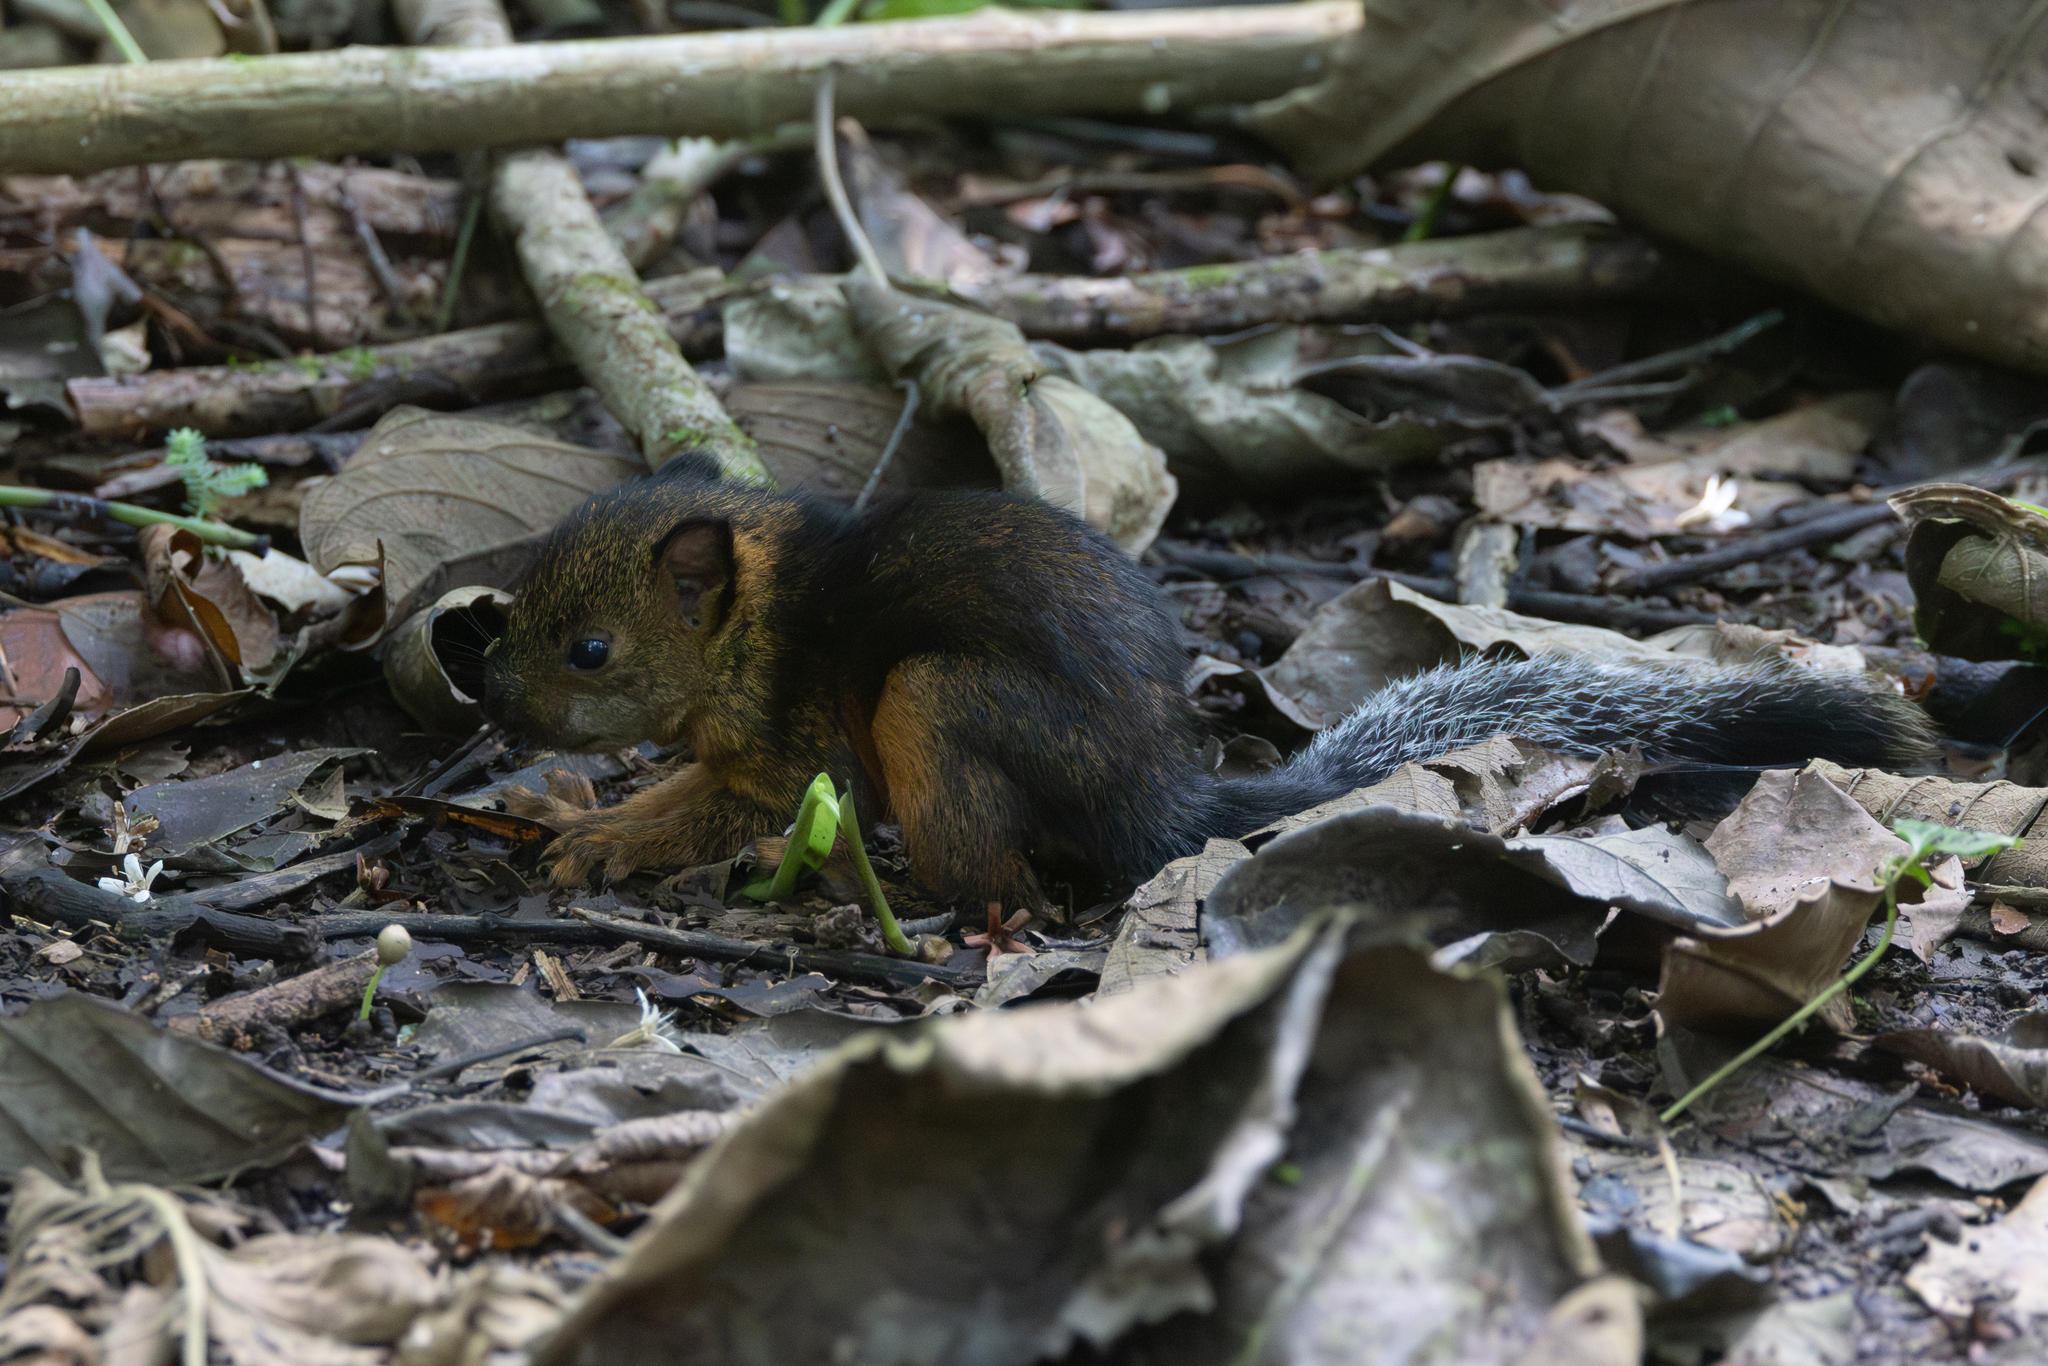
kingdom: Animalia
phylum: Chordata
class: Mammalia
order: Rodentia
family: Sciuridae
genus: Sciurus
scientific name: Sciurus variegatoides
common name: Variegated squirrel
